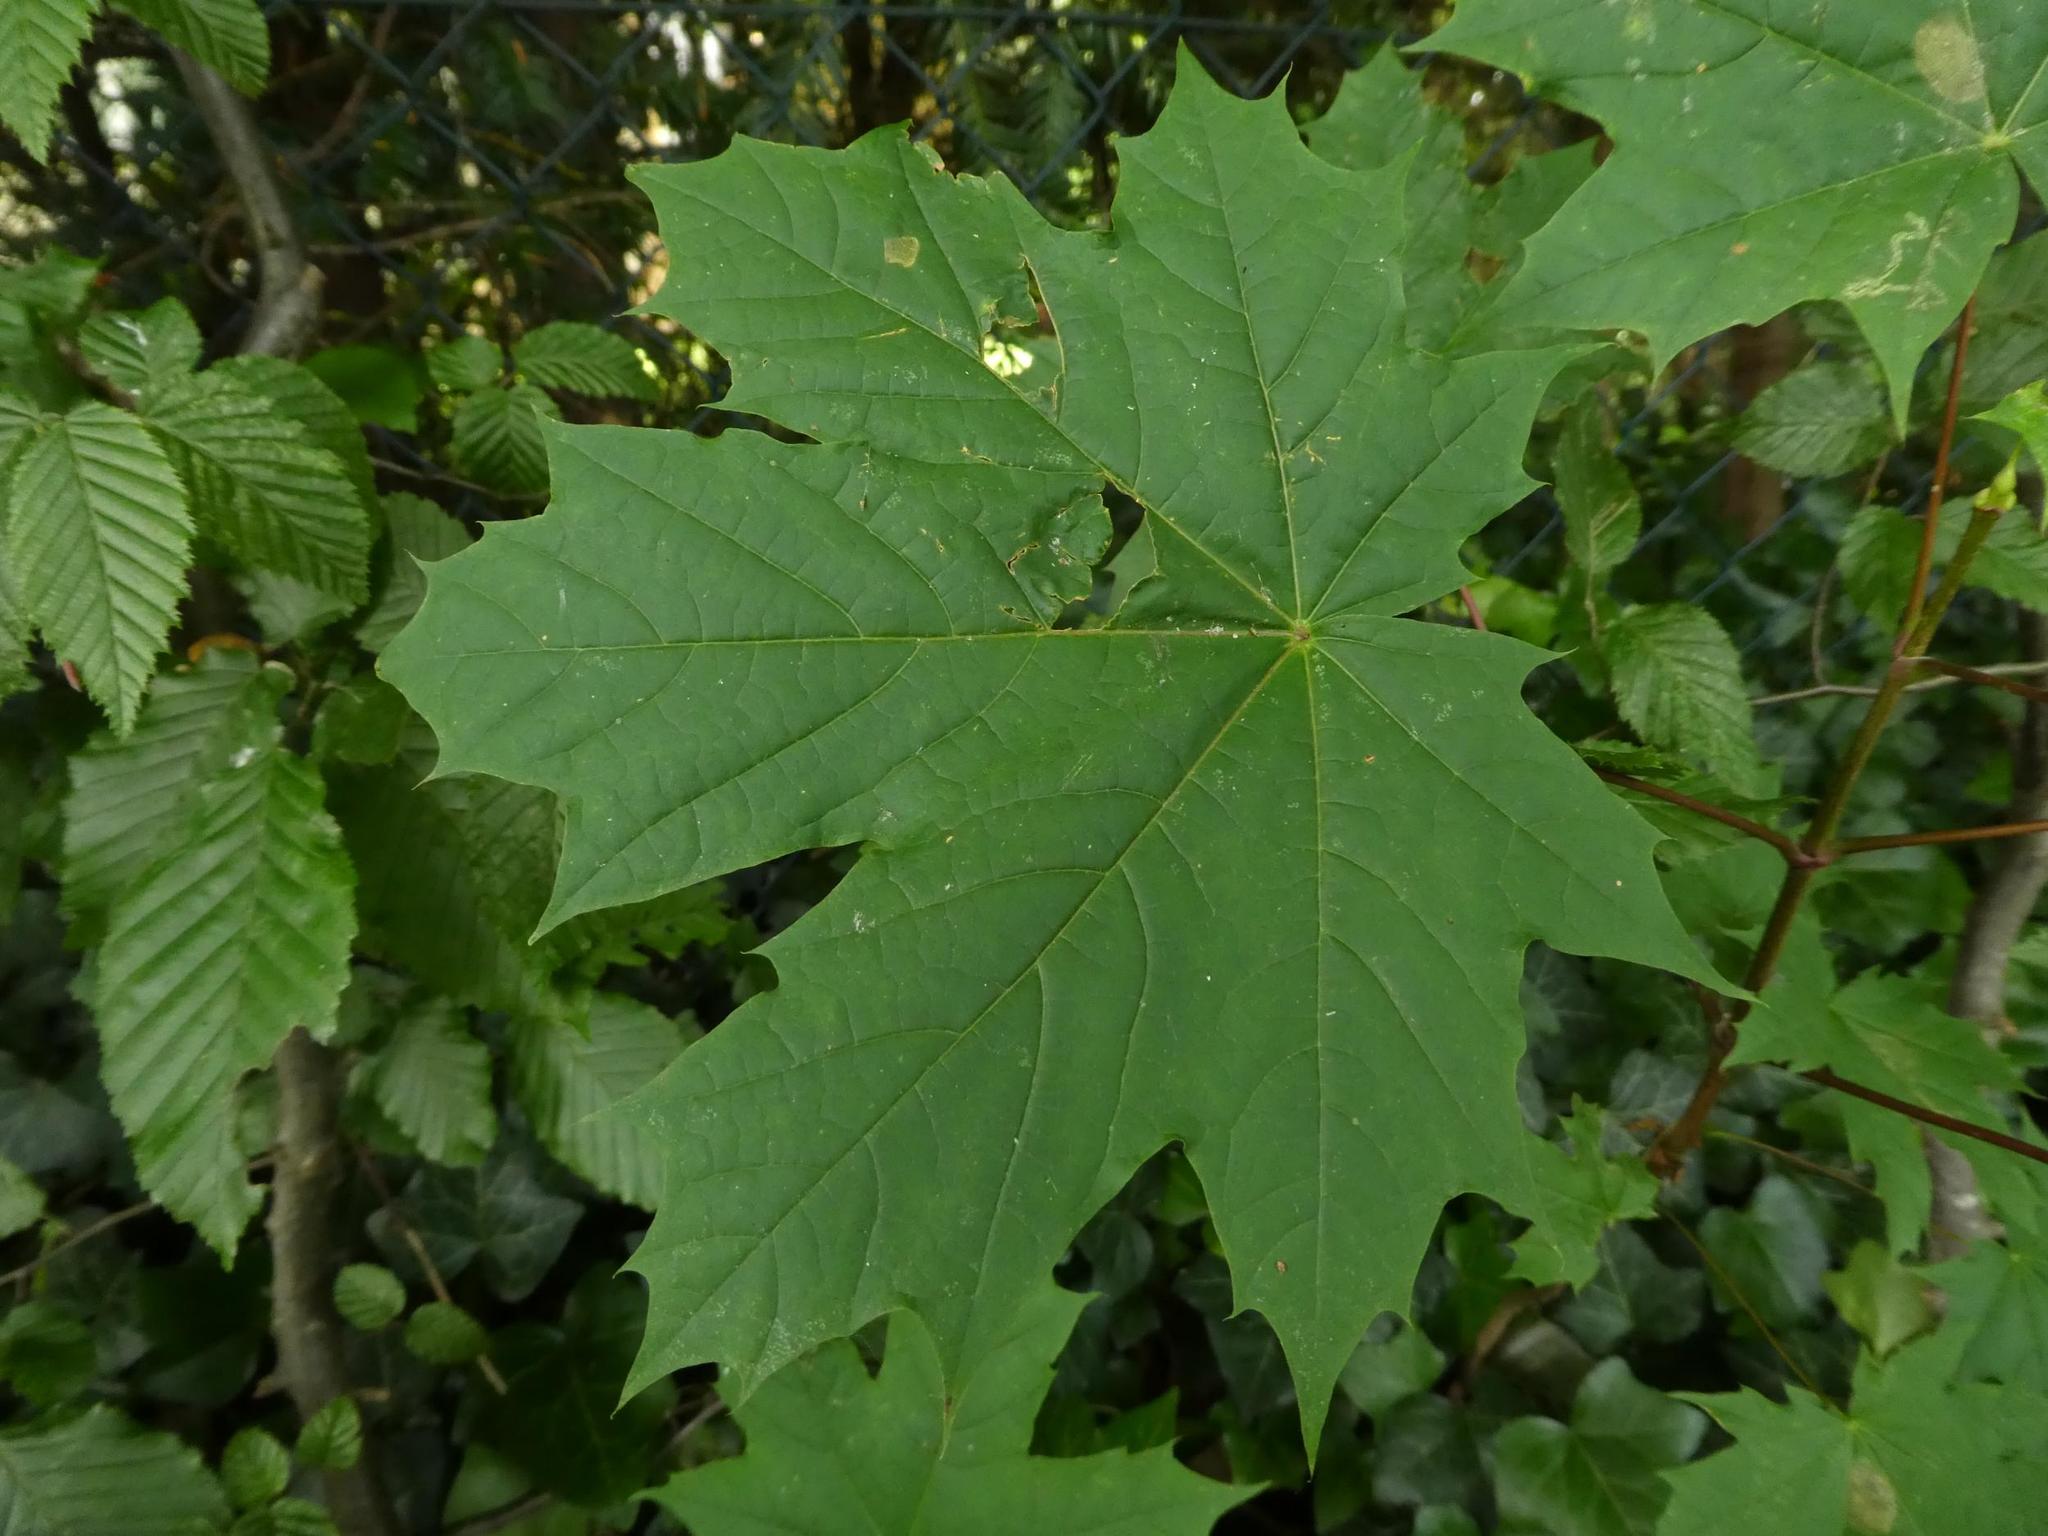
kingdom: Plantae
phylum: Tracheophyta
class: Magnoliopsida
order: Sapindales
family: Sapindaceae
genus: Acer
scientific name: Acer platanoides
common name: Norway maple
